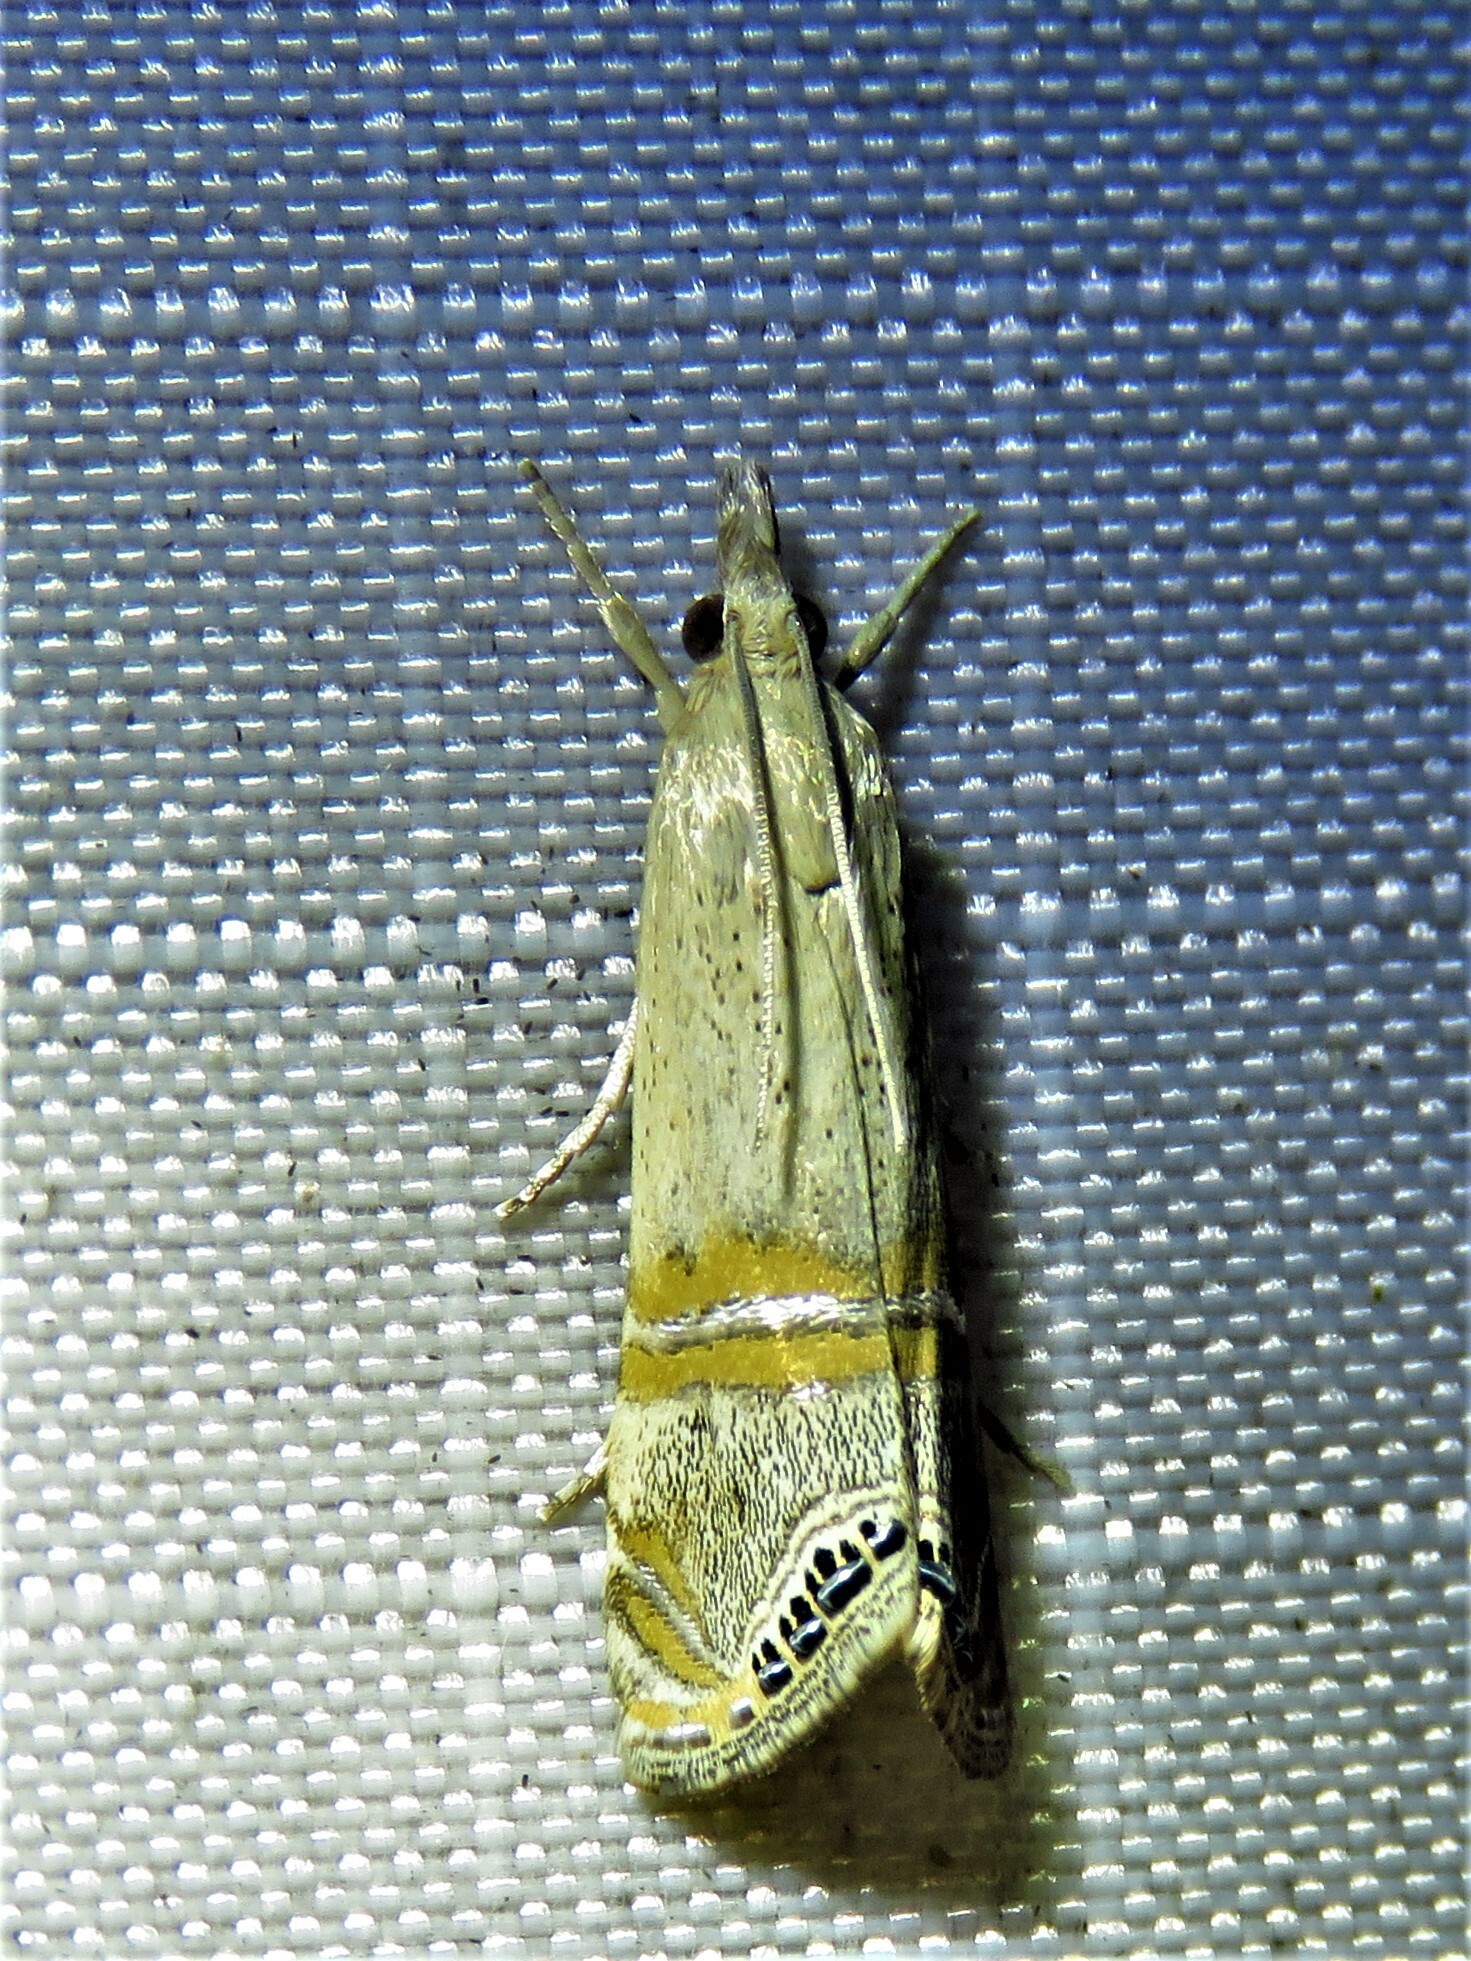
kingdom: Animalia
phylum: Arthropoda
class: Insecta
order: Lepidoptera
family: Crambidae
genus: Euchromius
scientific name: Euchromius ocellea
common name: Necklace veneer moth
